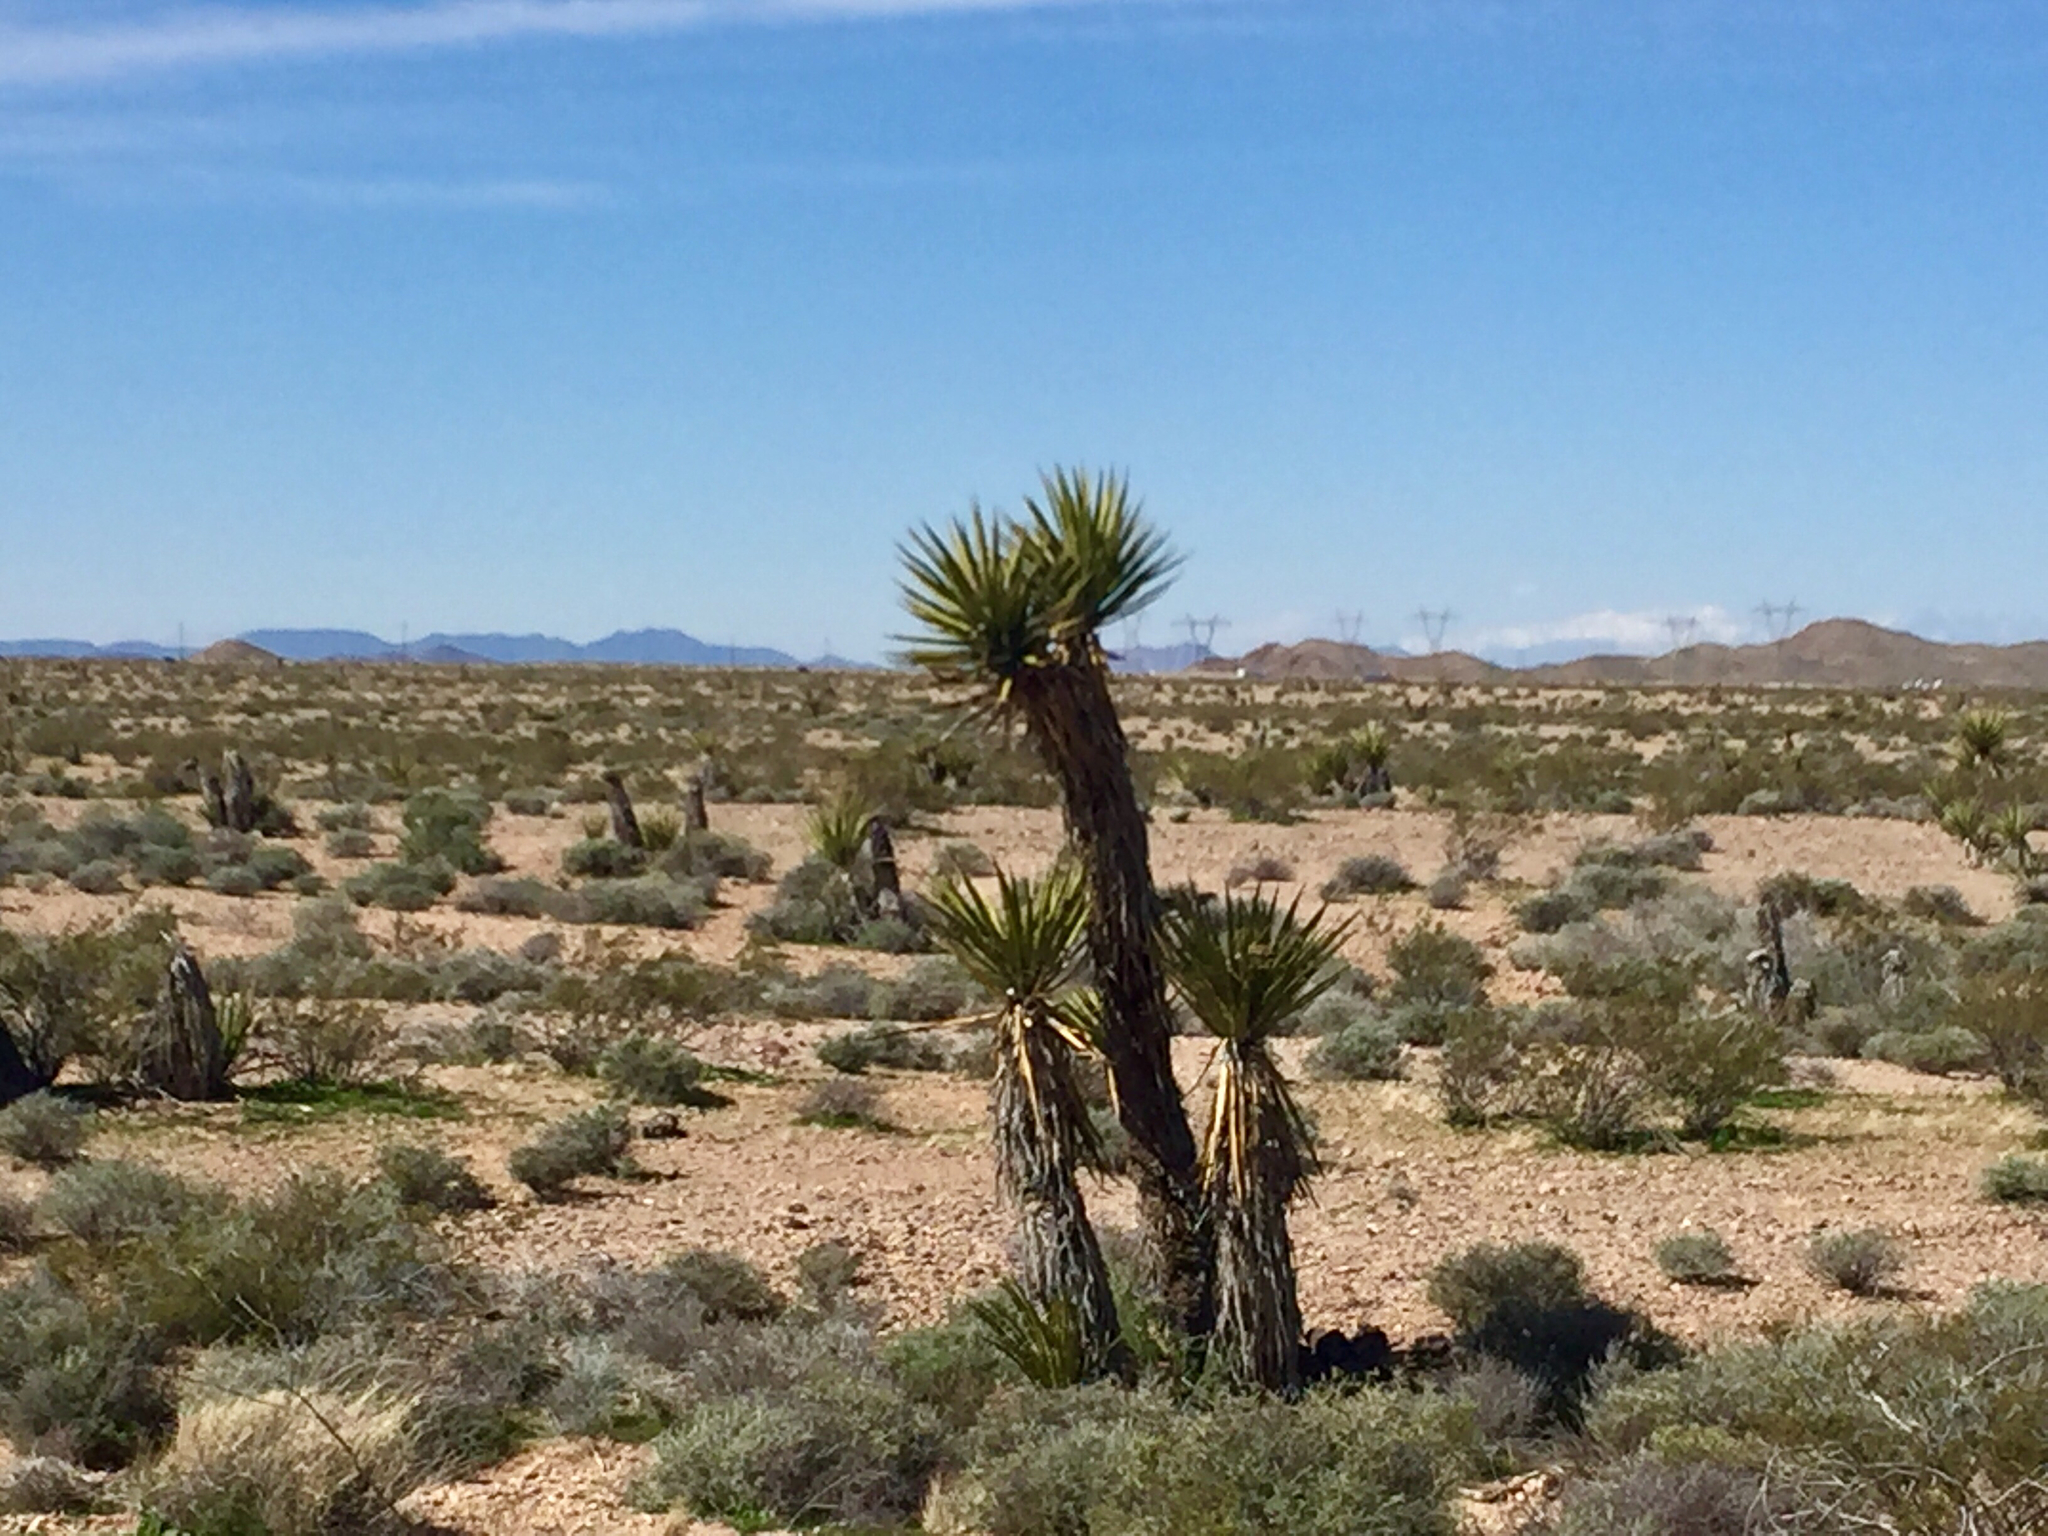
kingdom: Plantae
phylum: Tracheophyta
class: Liliopsida
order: Asparagales
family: Asparagaceae
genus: Yucca
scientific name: Yucca schidigera
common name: Mojave yucca
